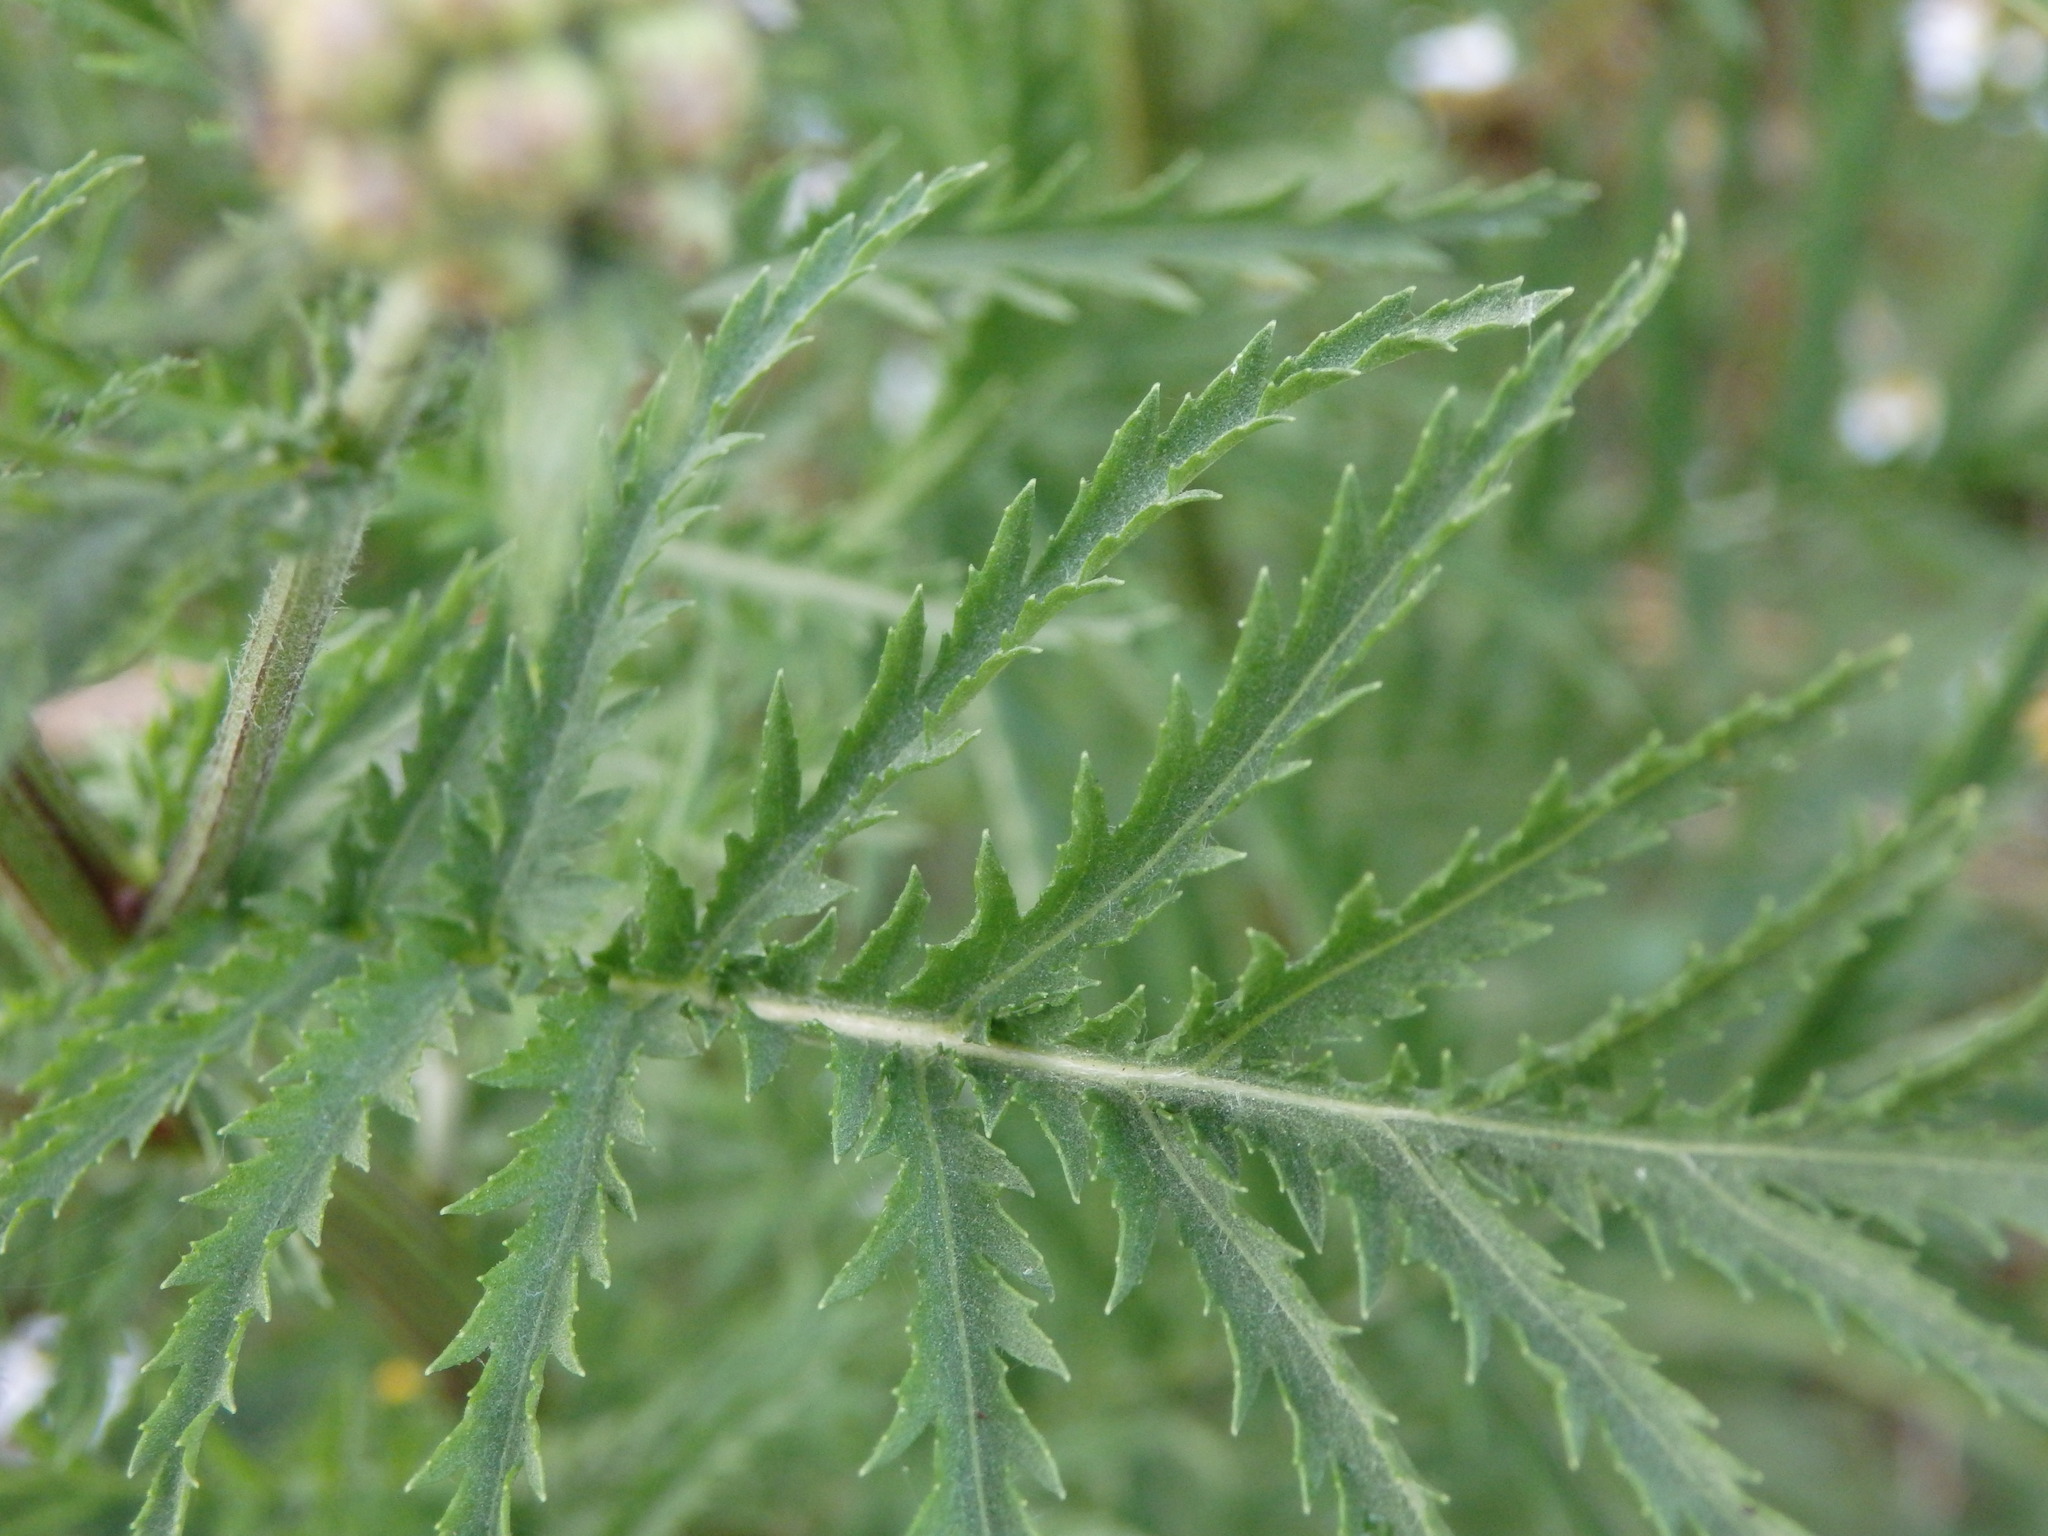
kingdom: Plantae
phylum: Tracheophyta
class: Magnoliopsida
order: Asterales
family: Asteraceae
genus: Tanacetum
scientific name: Tanacetum vulgare
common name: Common tansy
